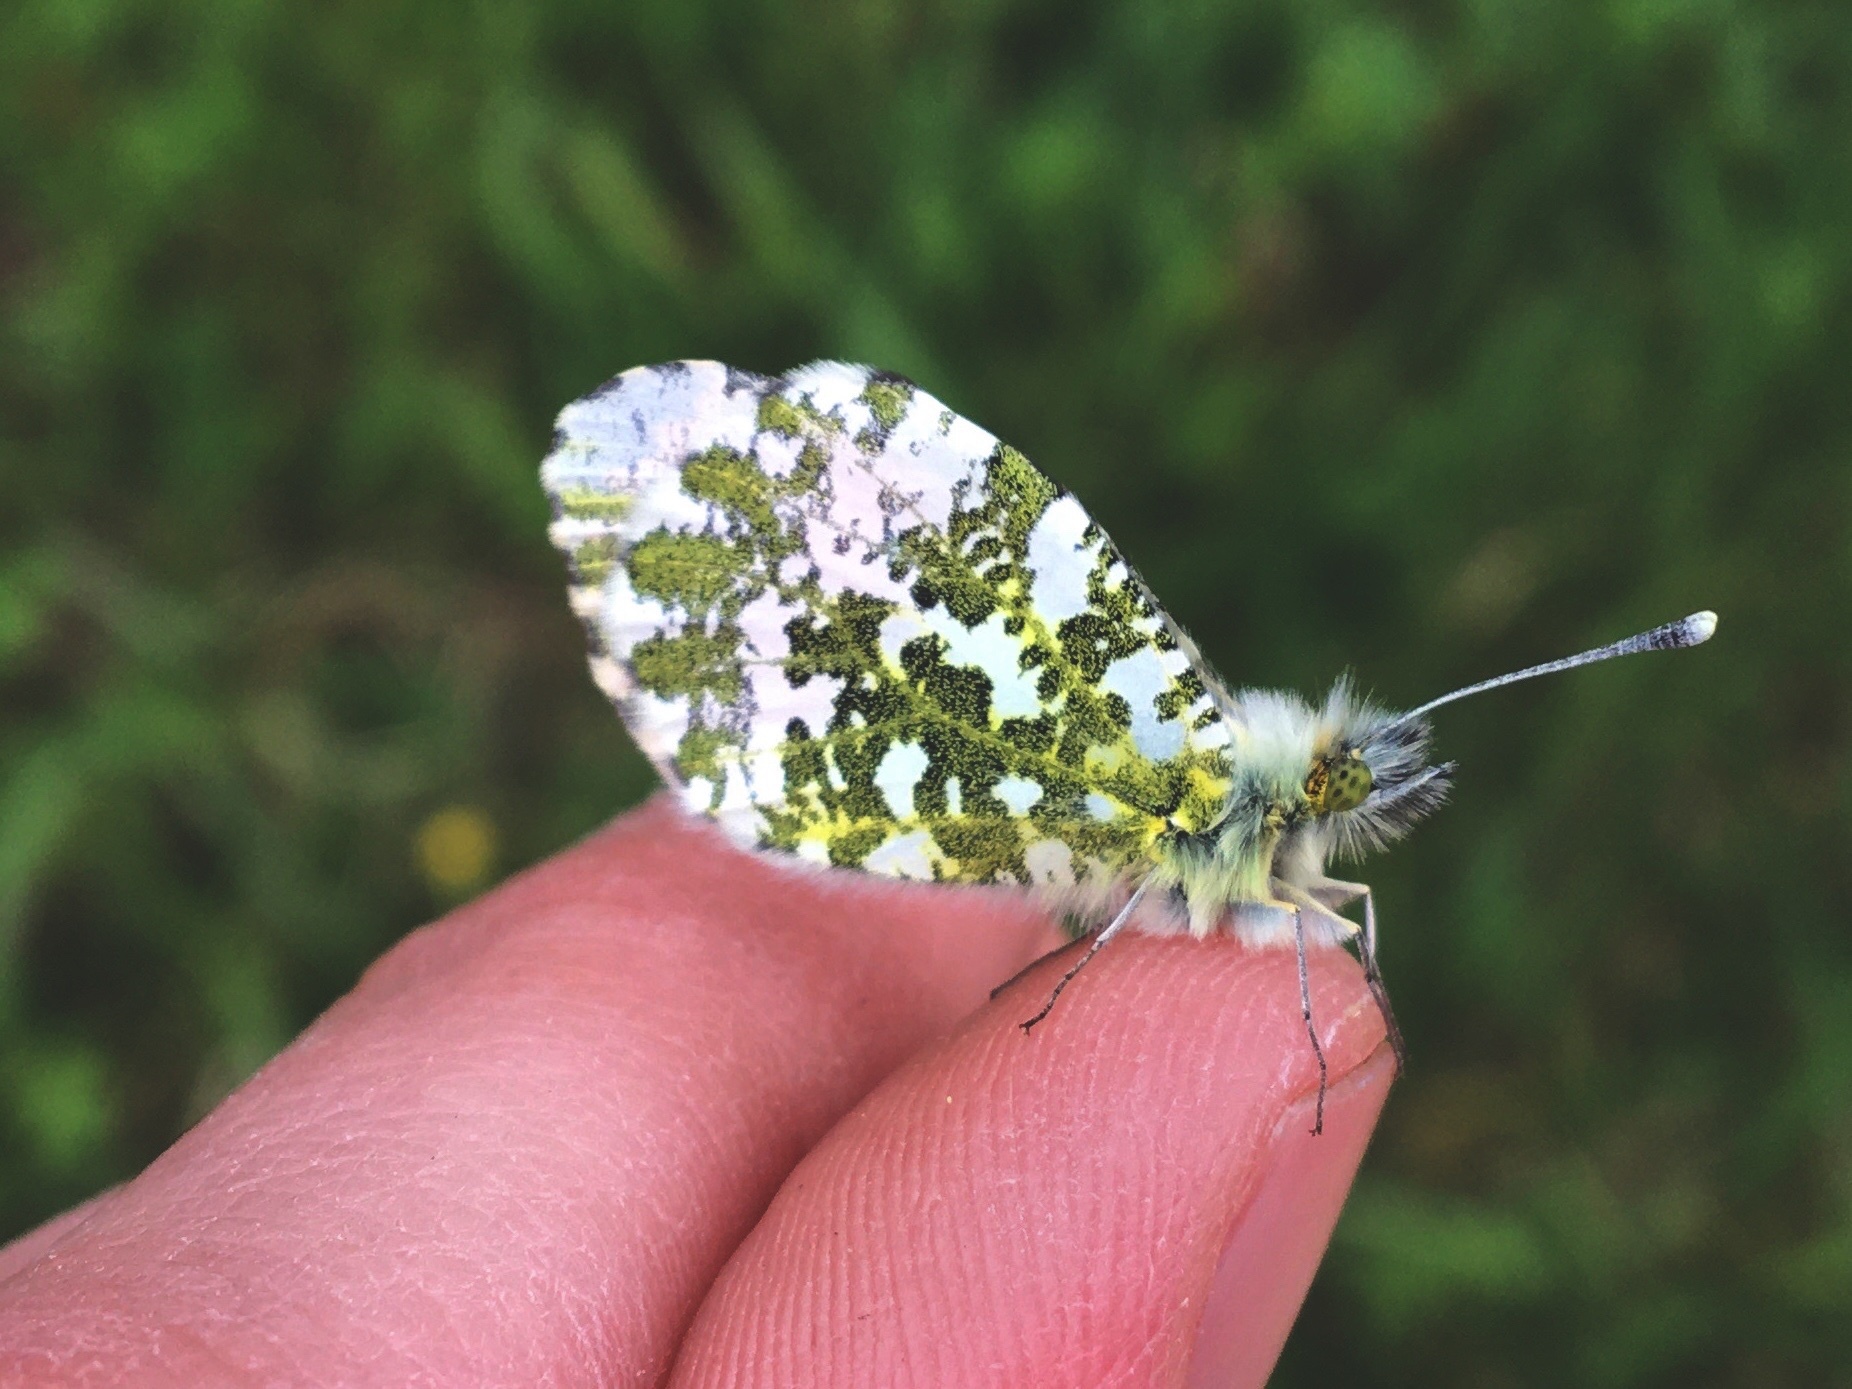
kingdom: Animalia
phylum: Arthropoda
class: Insecta
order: Lepidoptera
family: Pieridae
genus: Anthocharis
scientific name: Anthocharis cardamines
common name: Orange-tip
